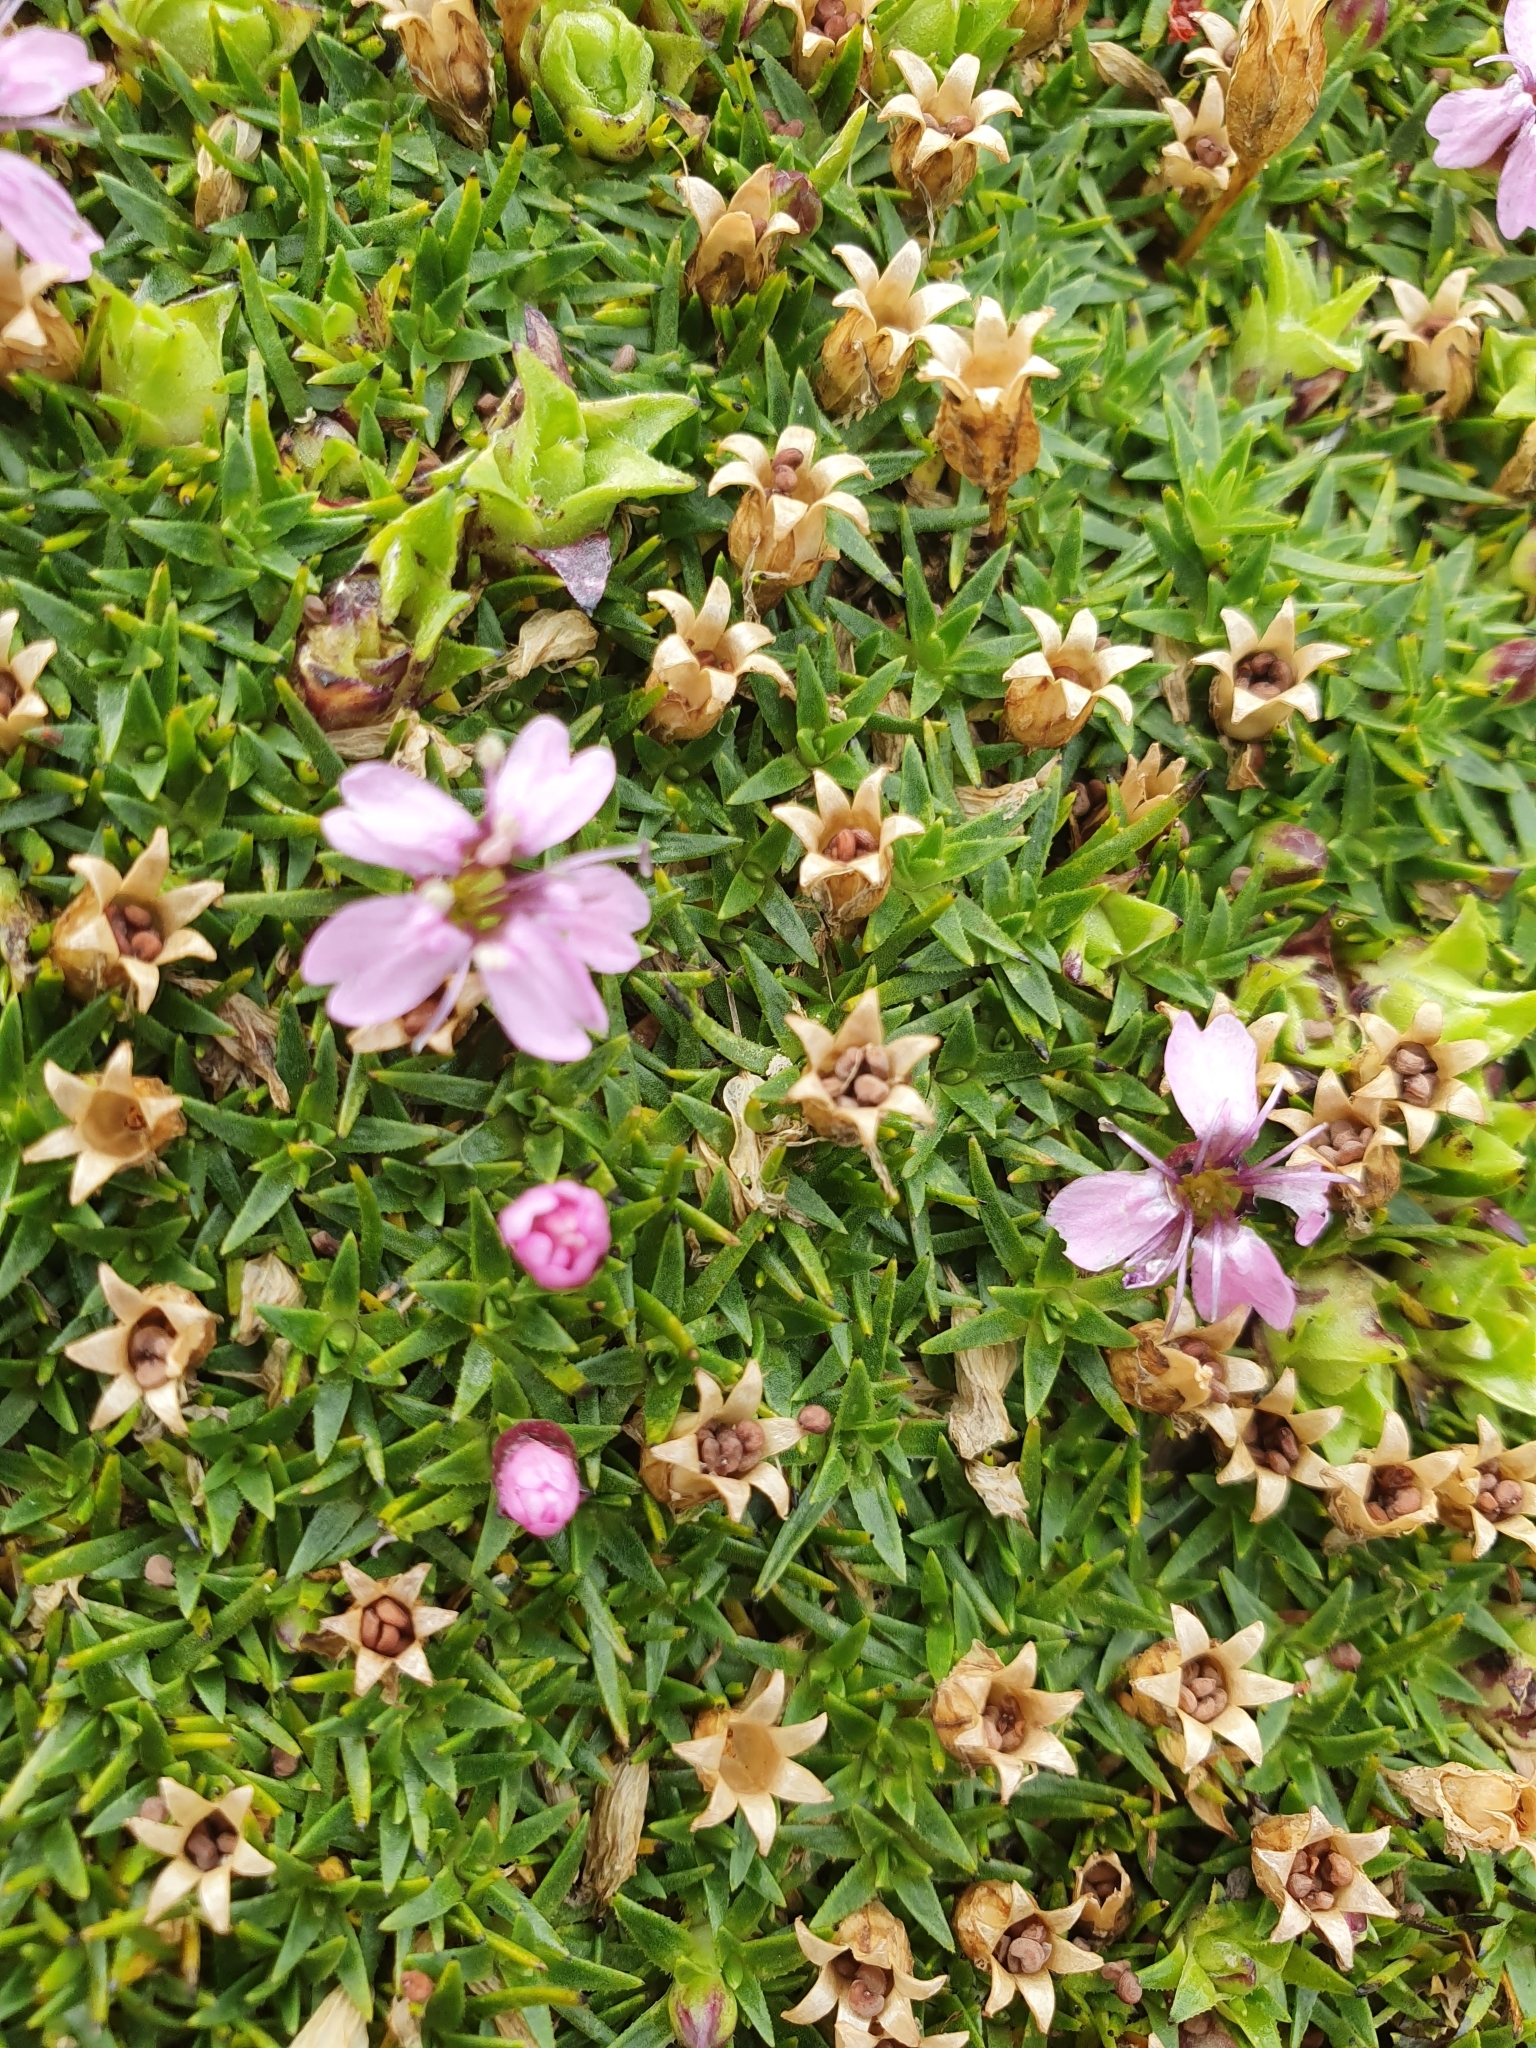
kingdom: Plantae
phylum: Tracheophyta
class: Magnoliopsida
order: Caryophyllales
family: Caryophyllaceae
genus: Silene
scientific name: Silene acaulis
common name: Moss campion
